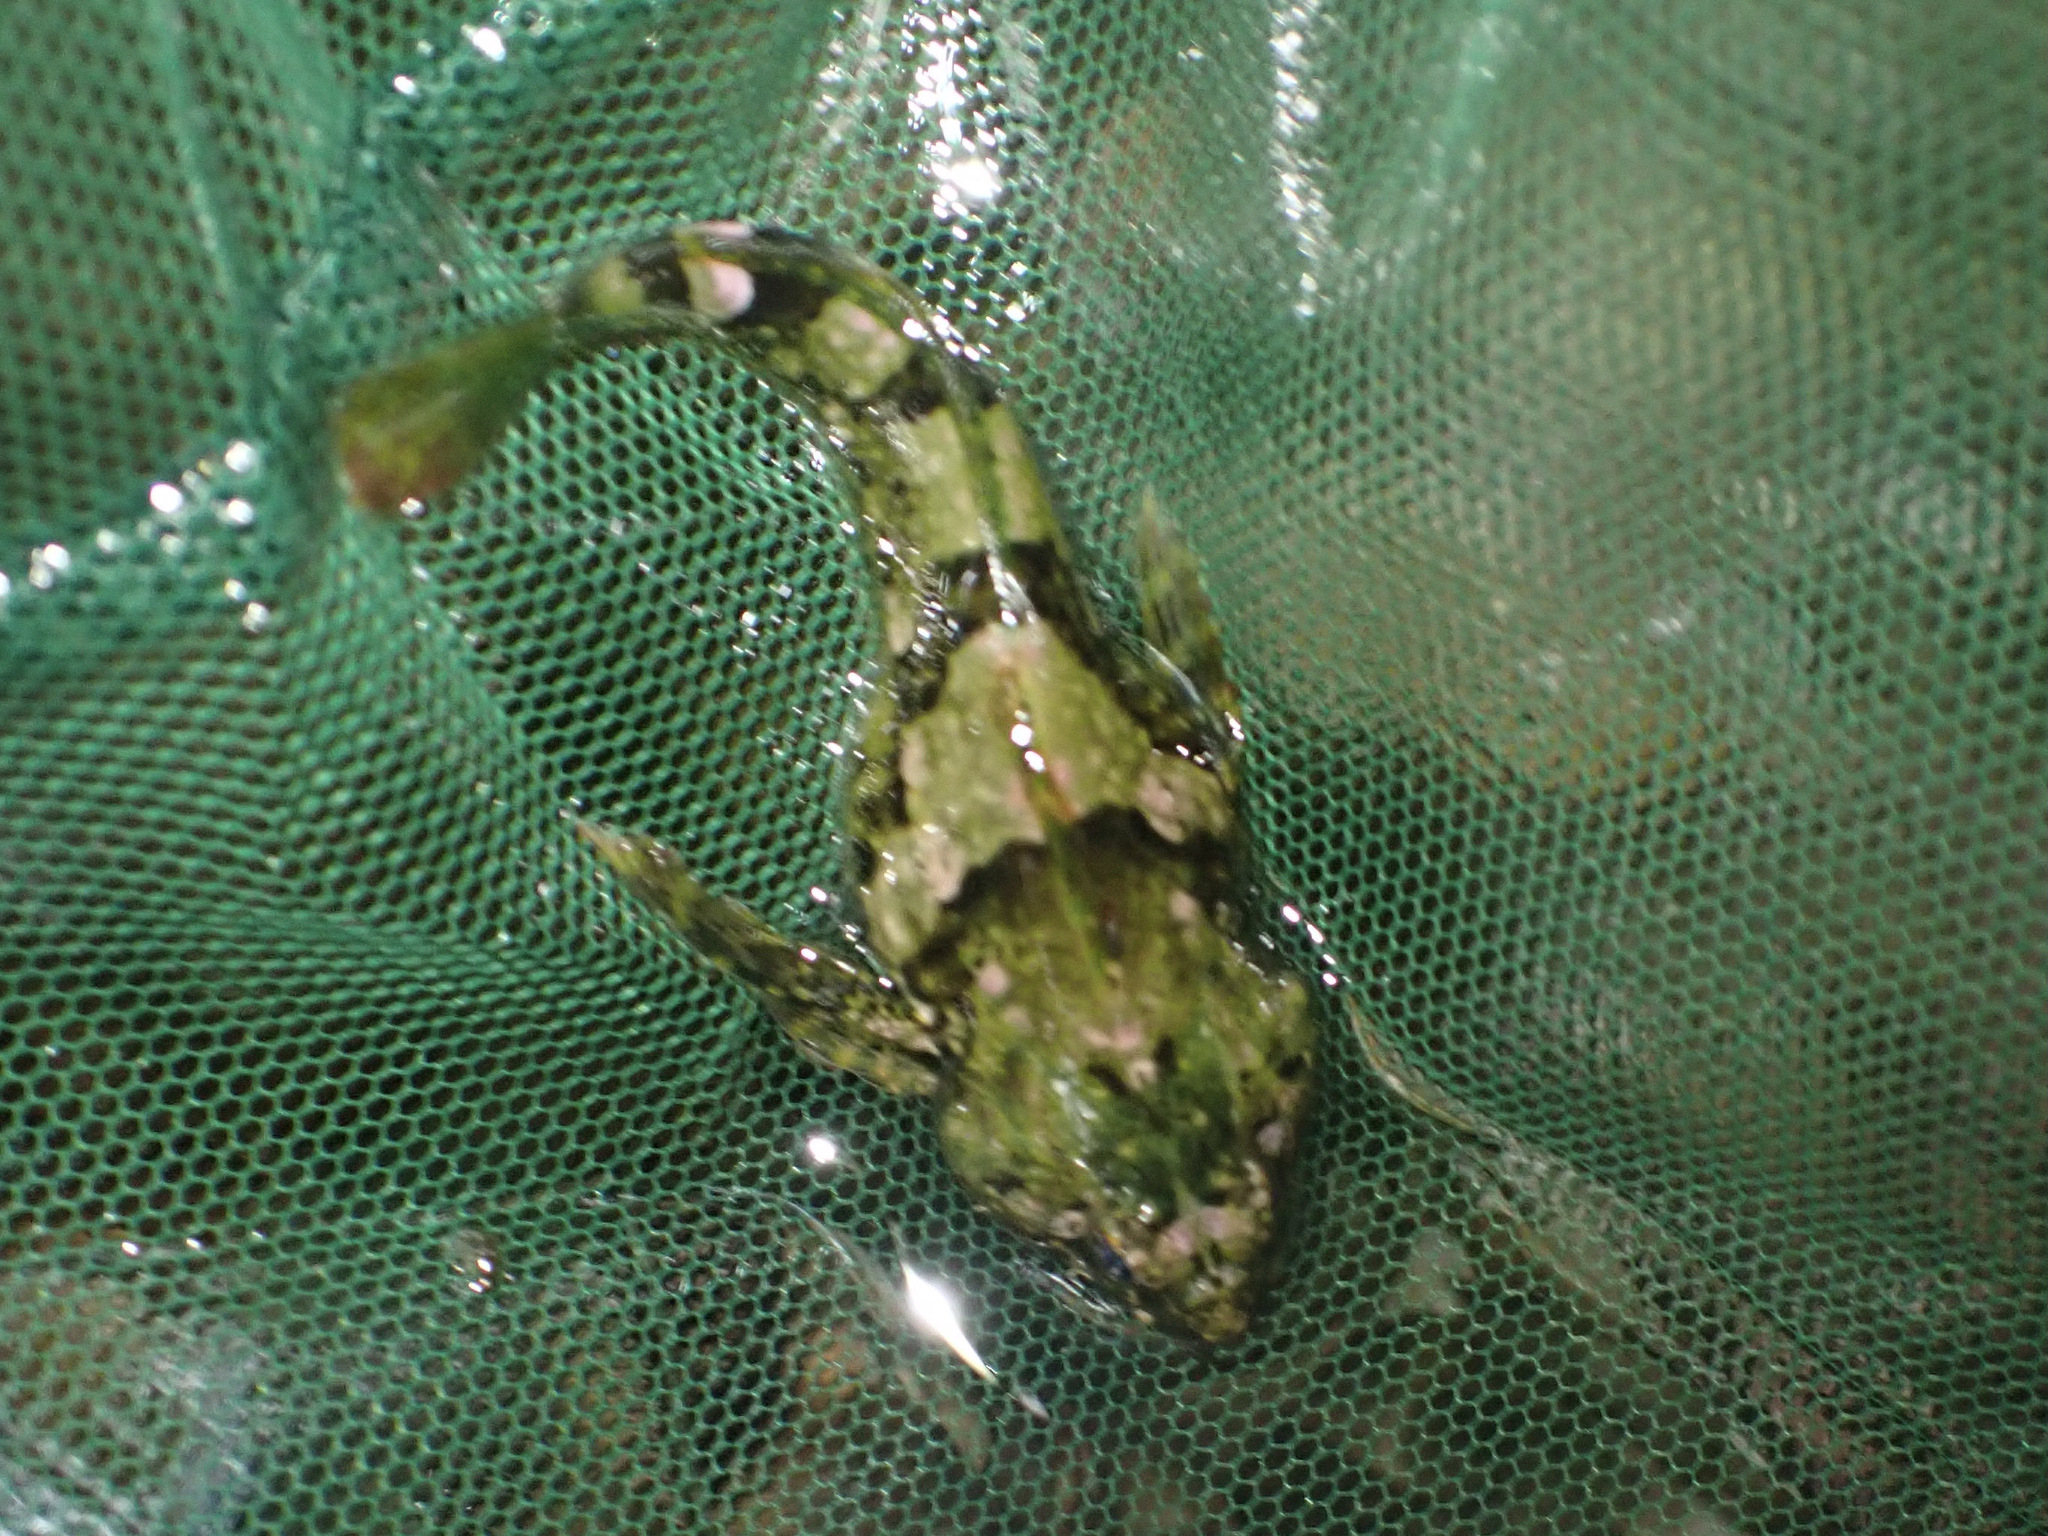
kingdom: Animalia
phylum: Chordata
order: Scorpaeniformes
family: Cottidae
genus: Oligocottus
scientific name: Oligocottus maculosus
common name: Tidepool sculpin
